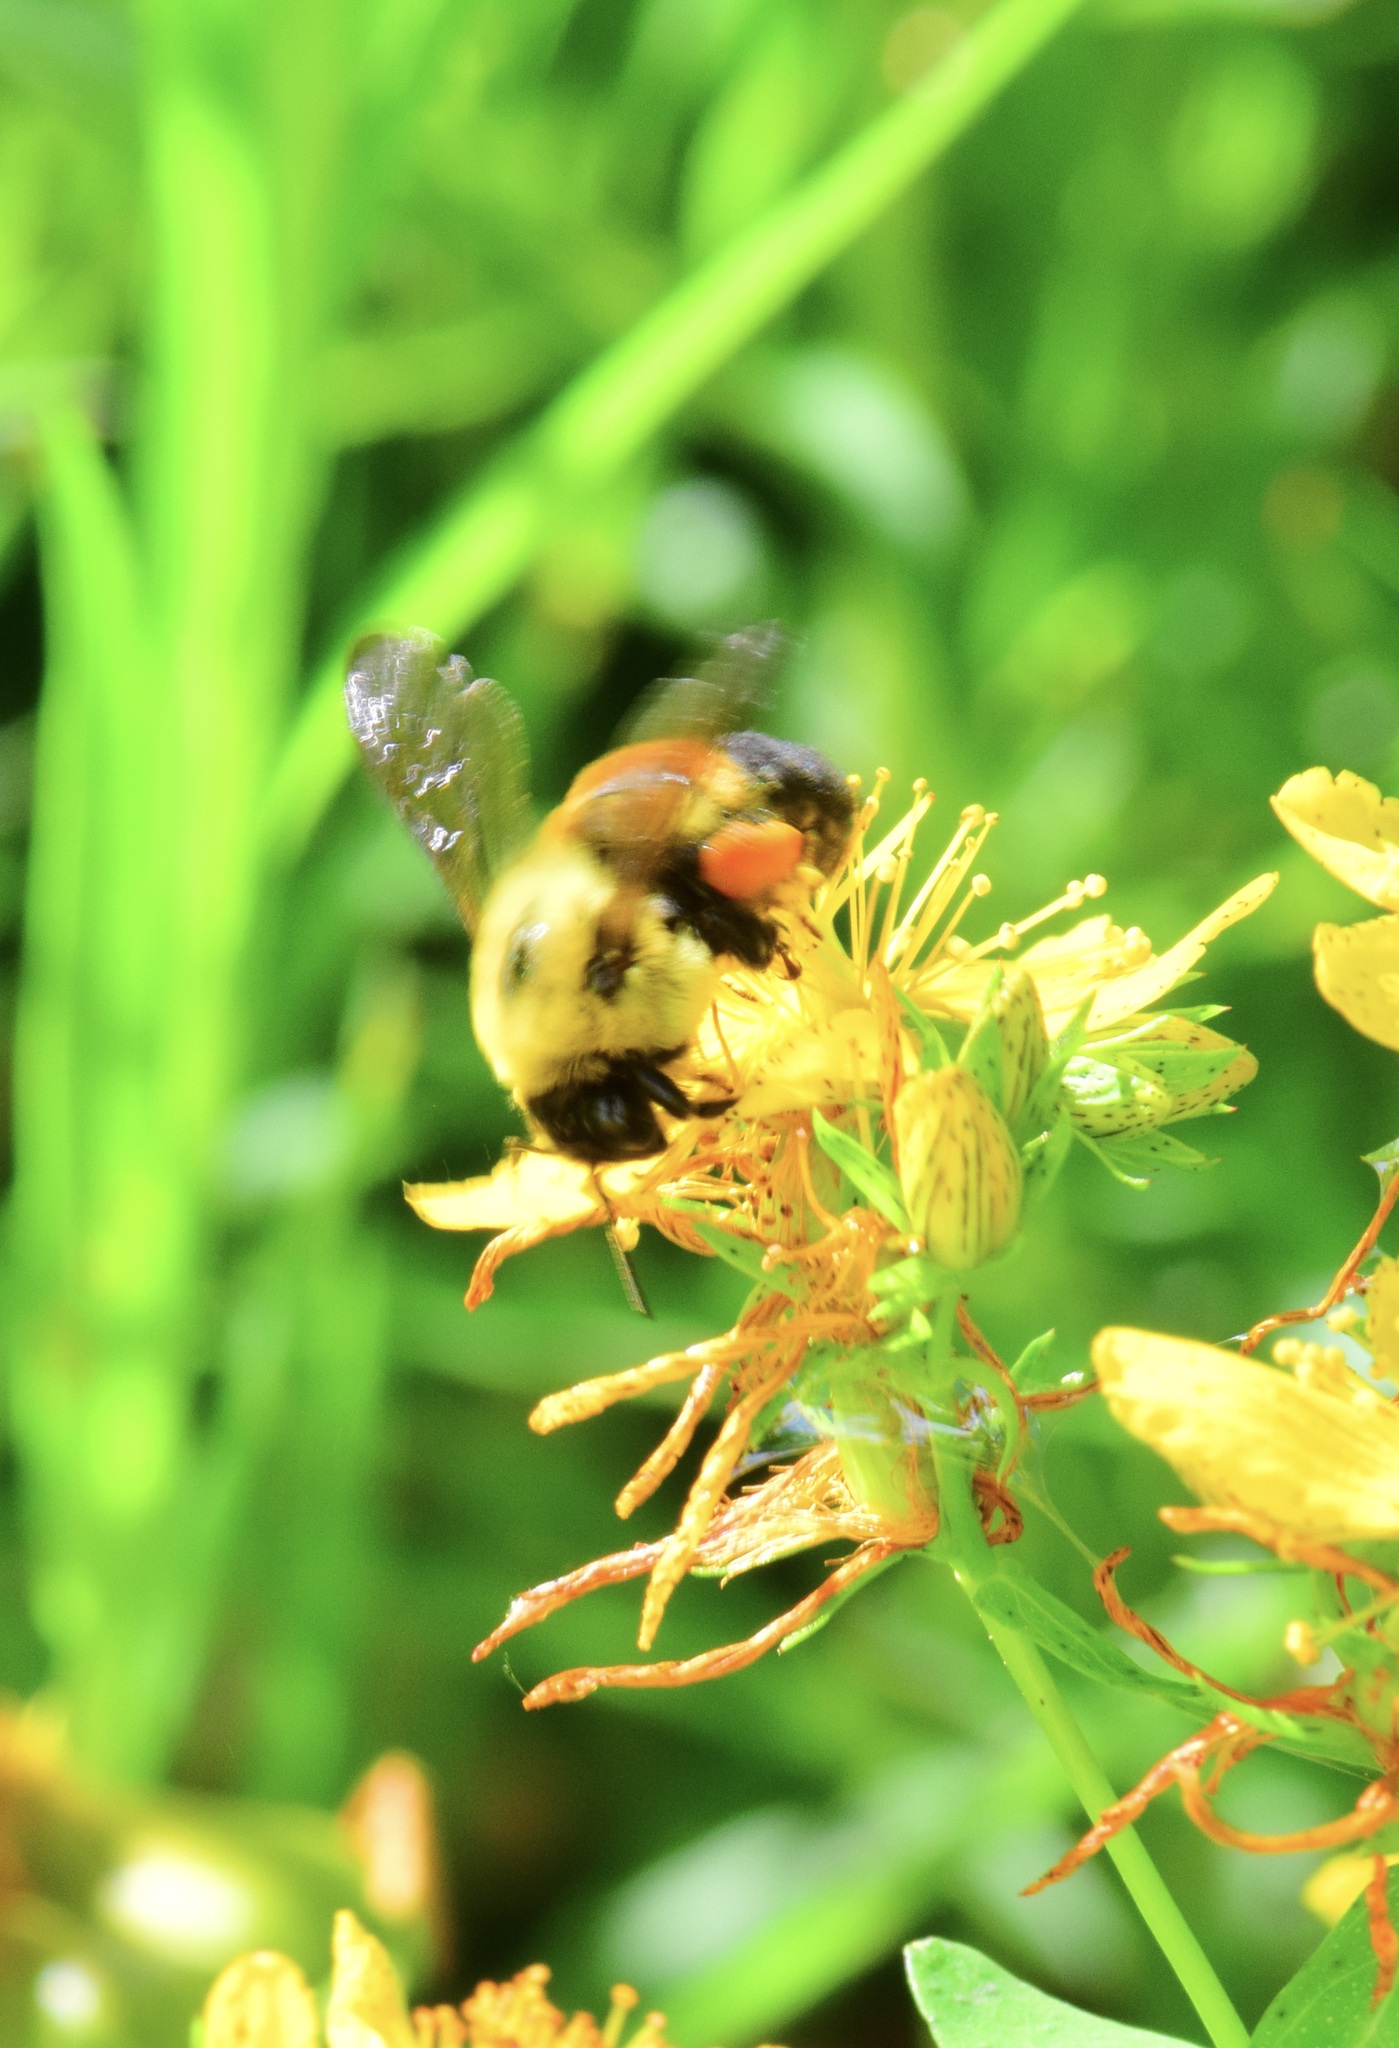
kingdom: Animalia
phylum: Arthropoda
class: Insecta
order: Hymenoptera
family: Apidae
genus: Bombus
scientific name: Bombus griseocollis
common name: Brown-belted bumble bee
